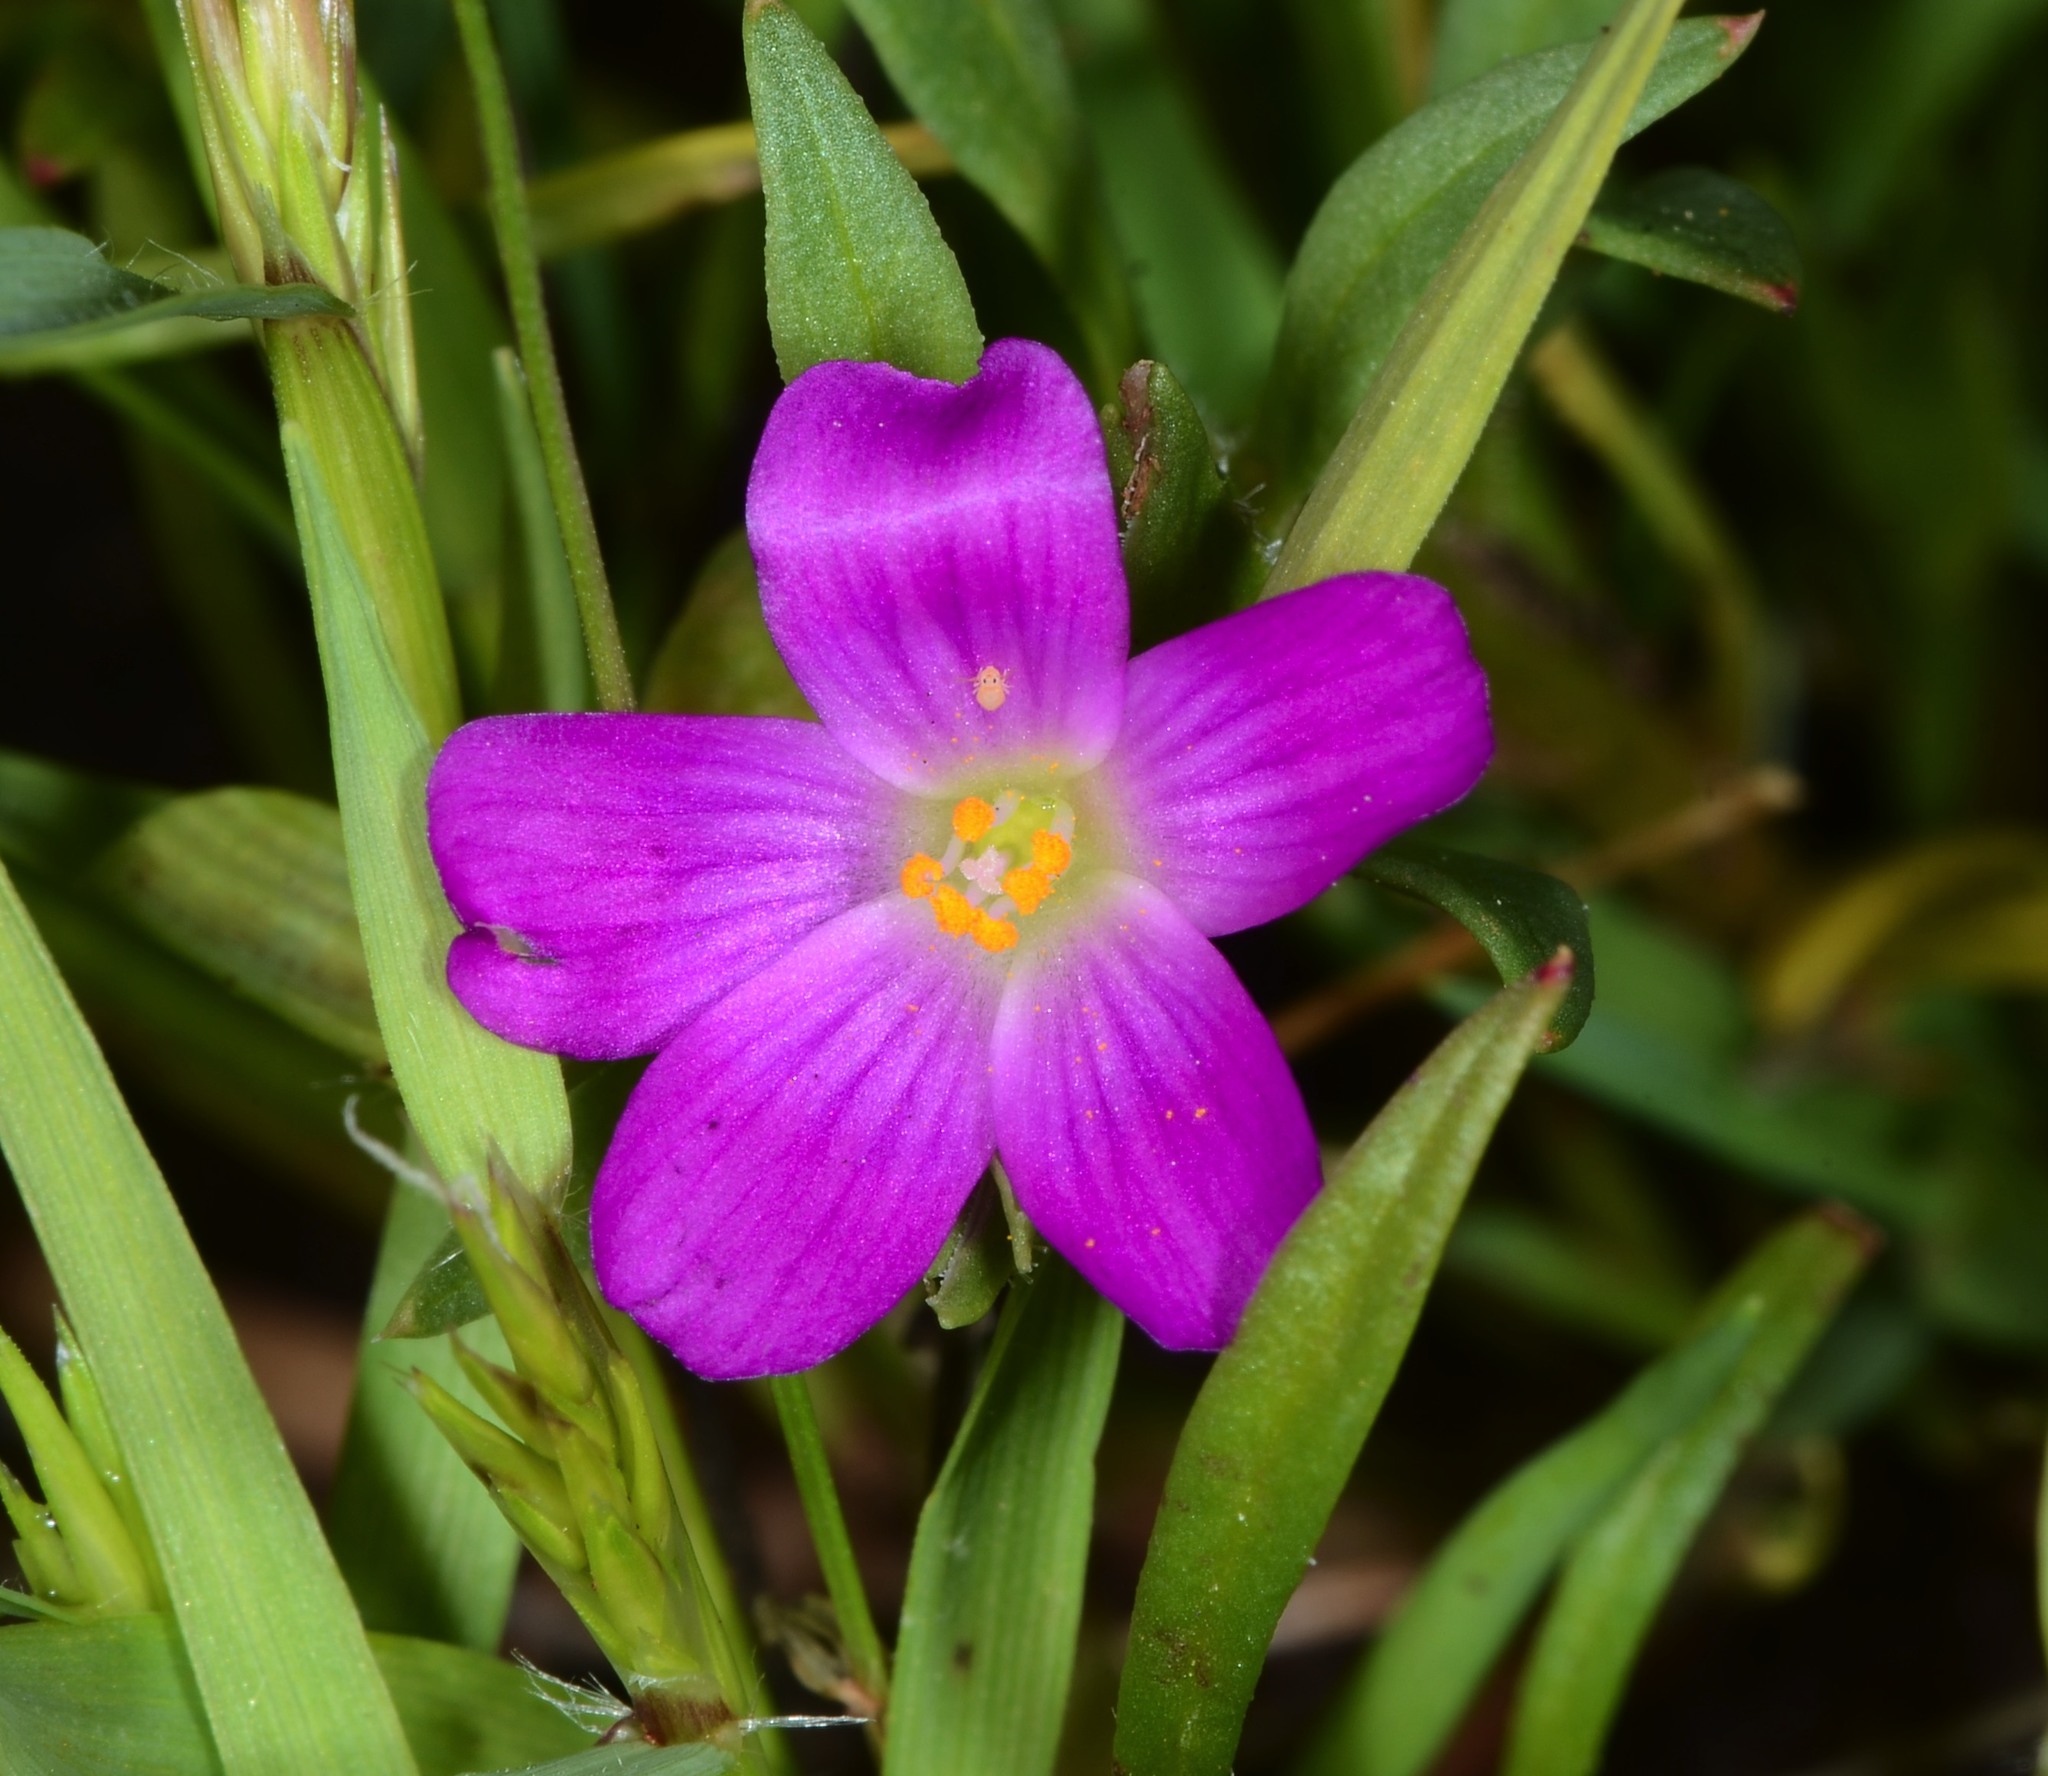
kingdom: Plantae
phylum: Tracheophyta
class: Magnoliopsida
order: Caryophyllales
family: Montiaceae
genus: Calandrinia
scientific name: Calandrinia menziesii
